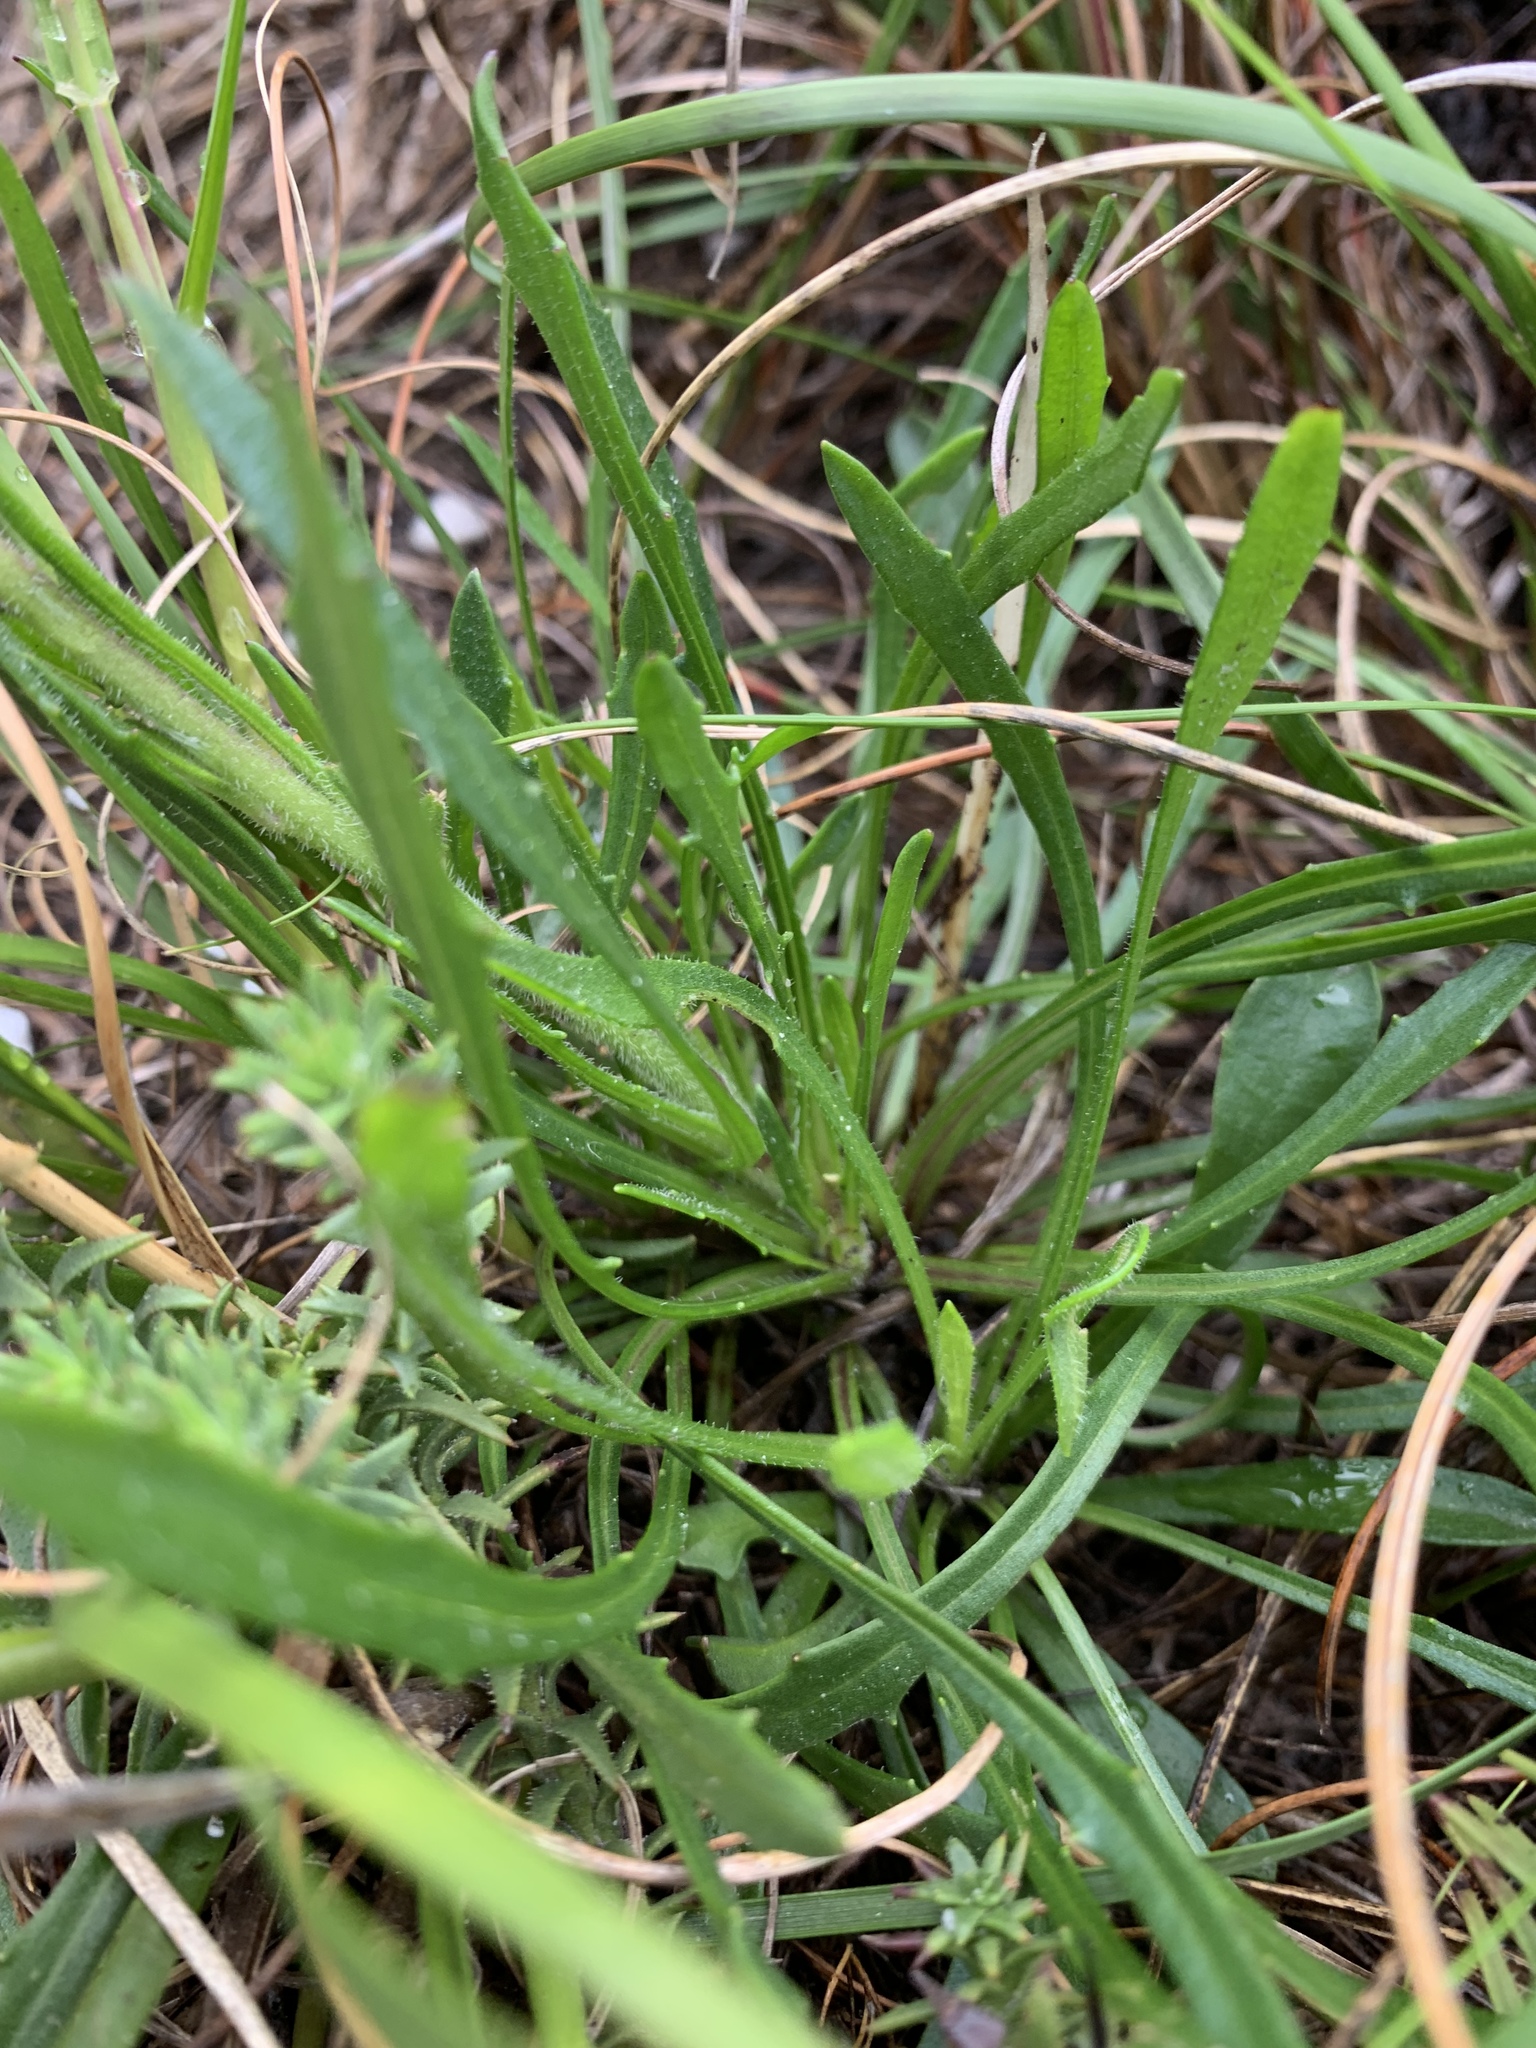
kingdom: Plantae
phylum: Tracheophyta
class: Magnoliopsida
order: Asterales
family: Asteraceae
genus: Dimorphotheca
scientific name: Dimorphotheca nudicaulis
